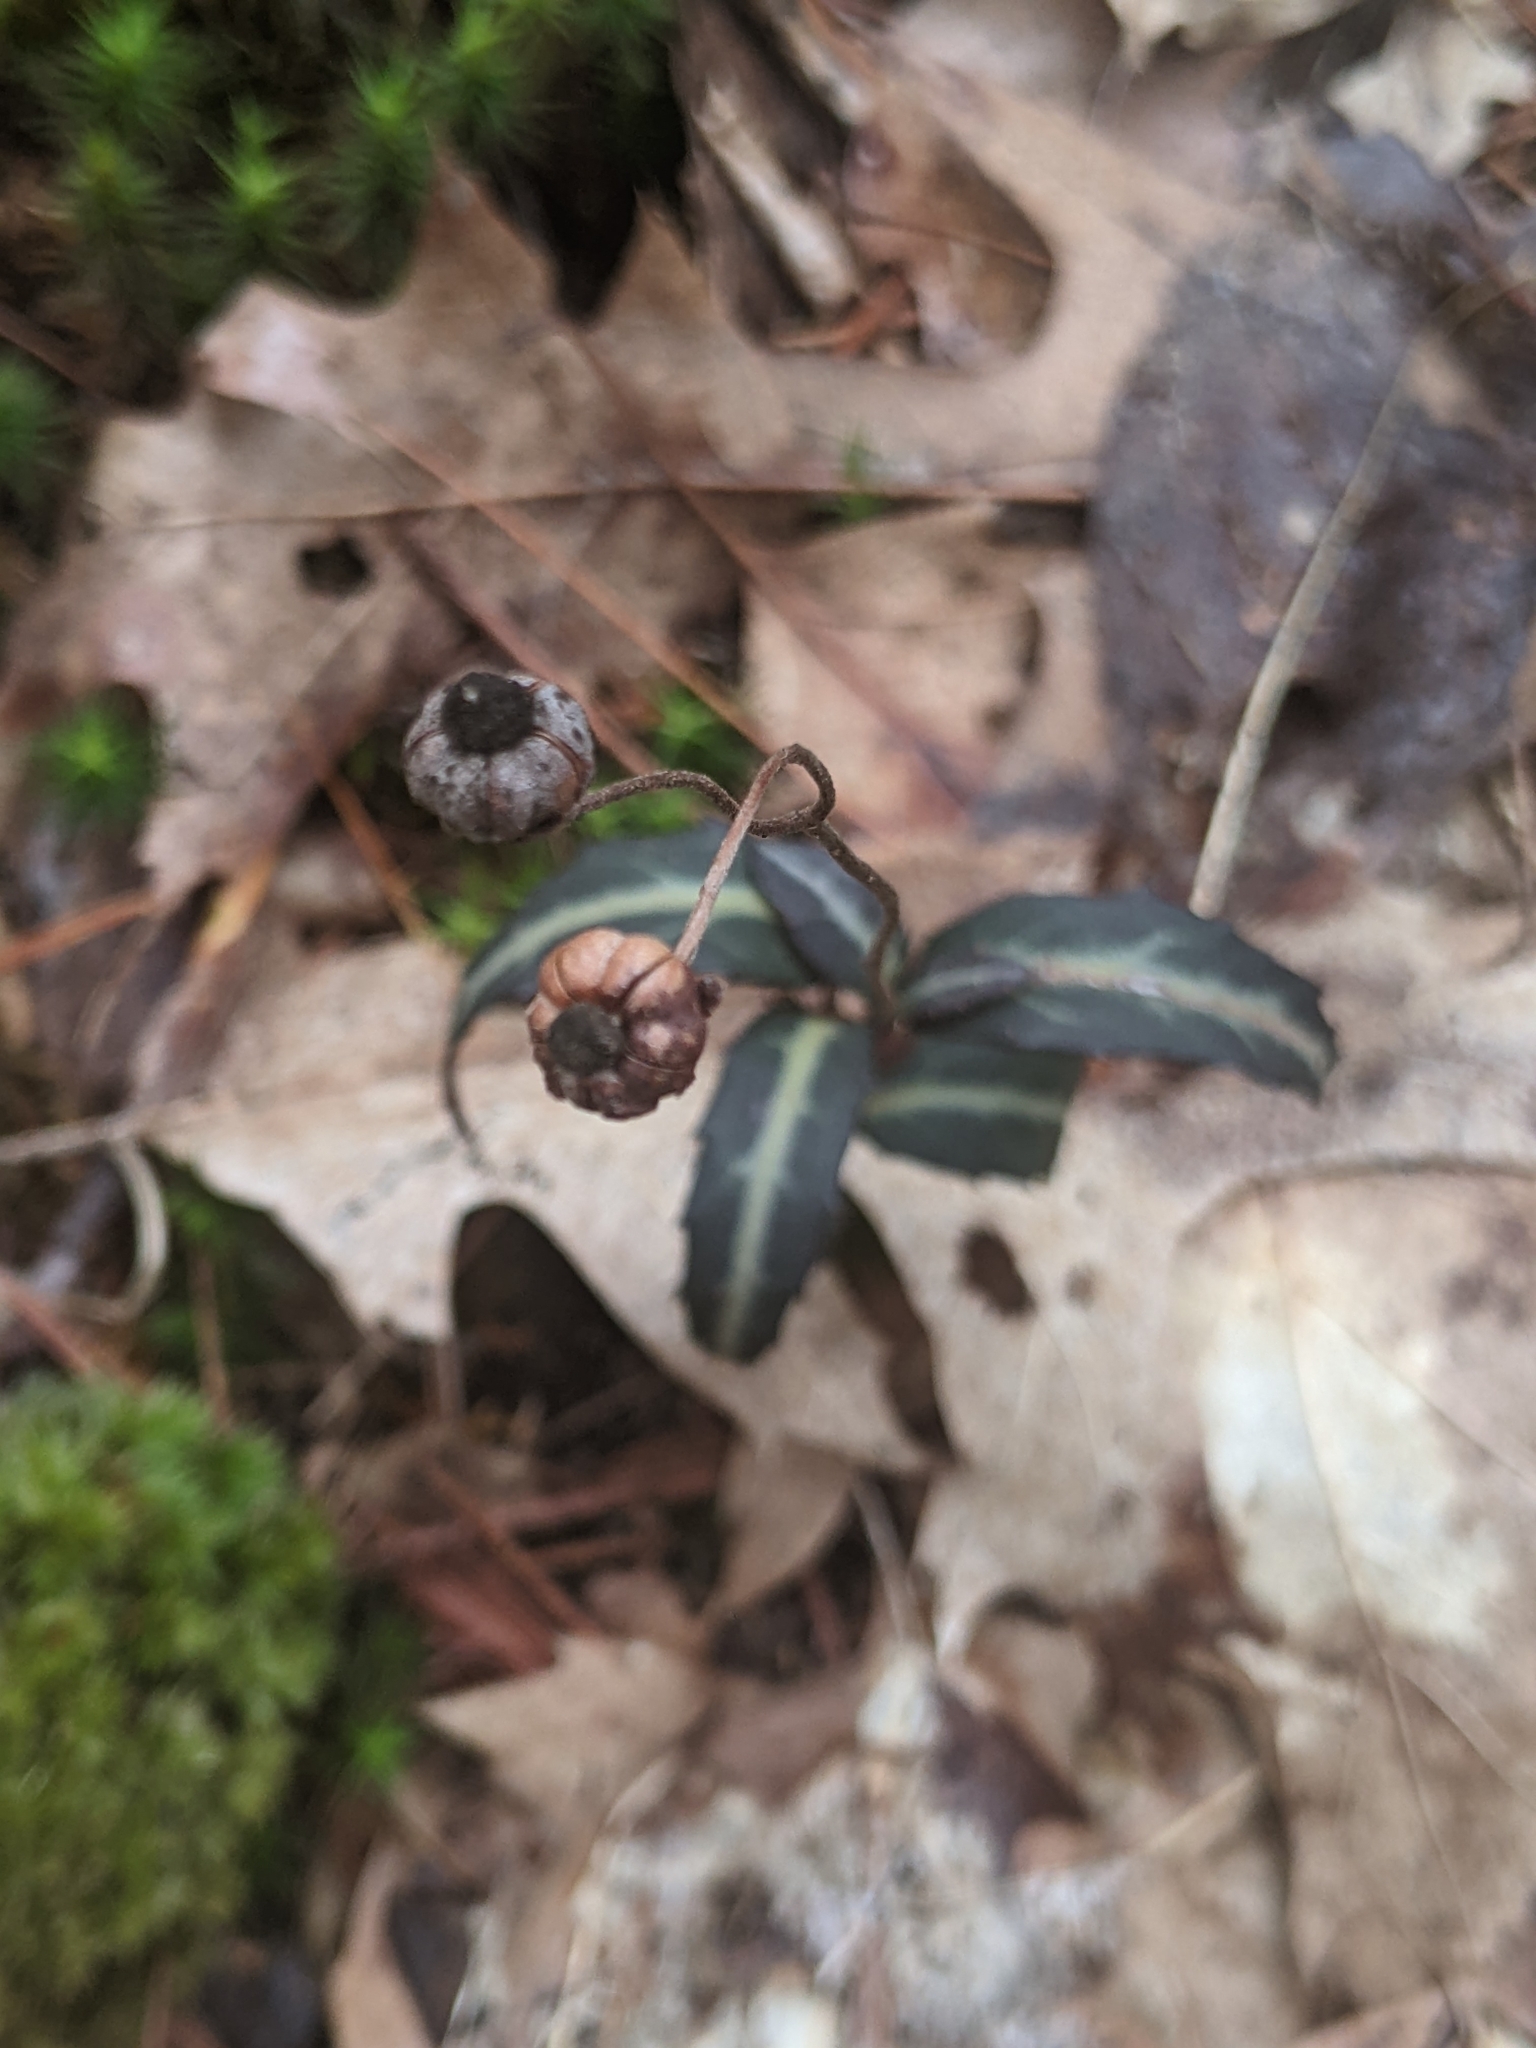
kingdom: Plantae
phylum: Tracheophyta
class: Magnoliopsida
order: Ericales
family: Ericaceae
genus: Chimaphila
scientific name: Chimaphila maculata
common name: Spotted pipsissewa
